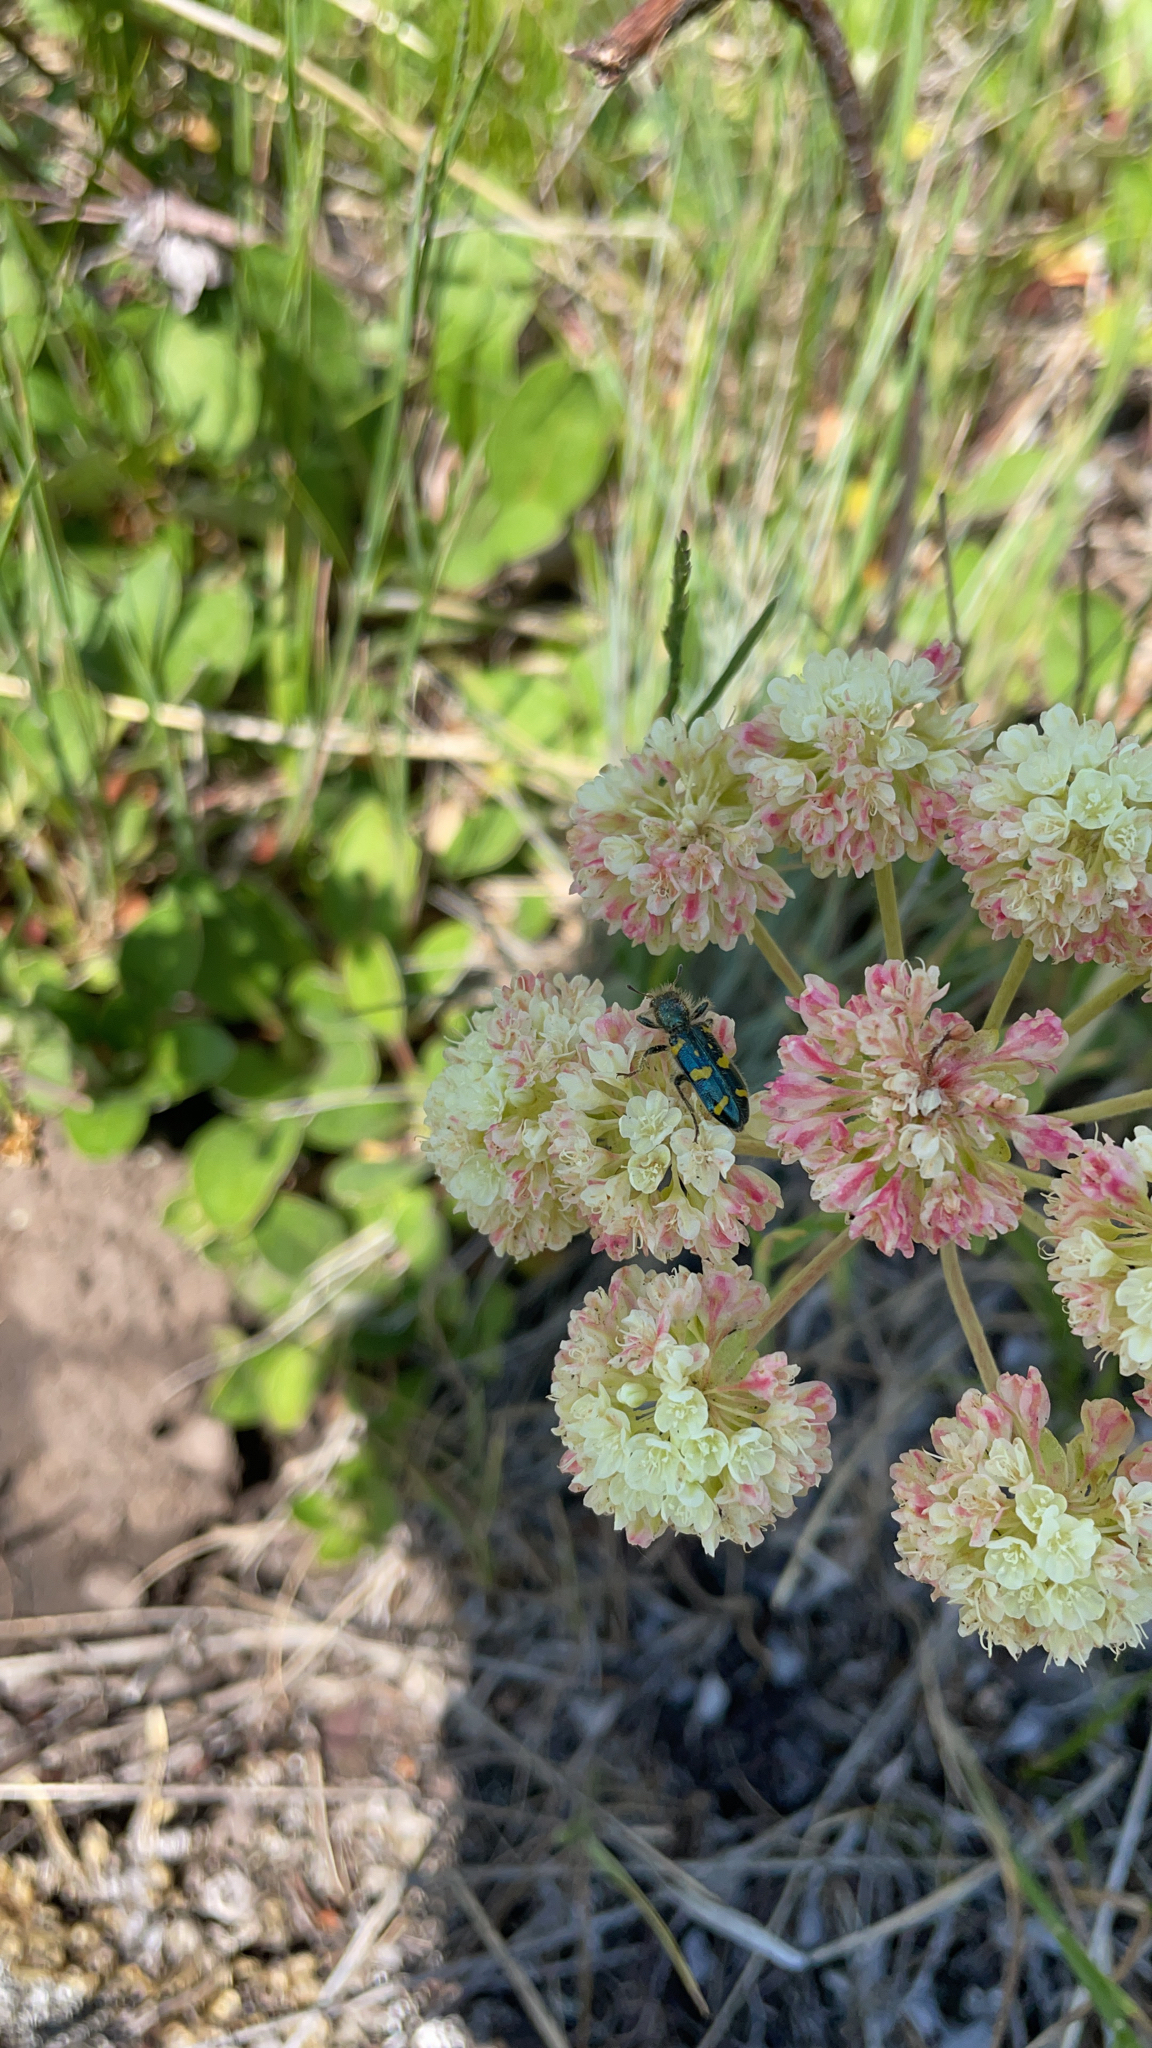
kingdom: Animalia
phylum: Arthropoda
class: Insecta
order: Coleoptera
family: Cleridae
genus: Trichodes
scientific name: Trichodes ornatus
